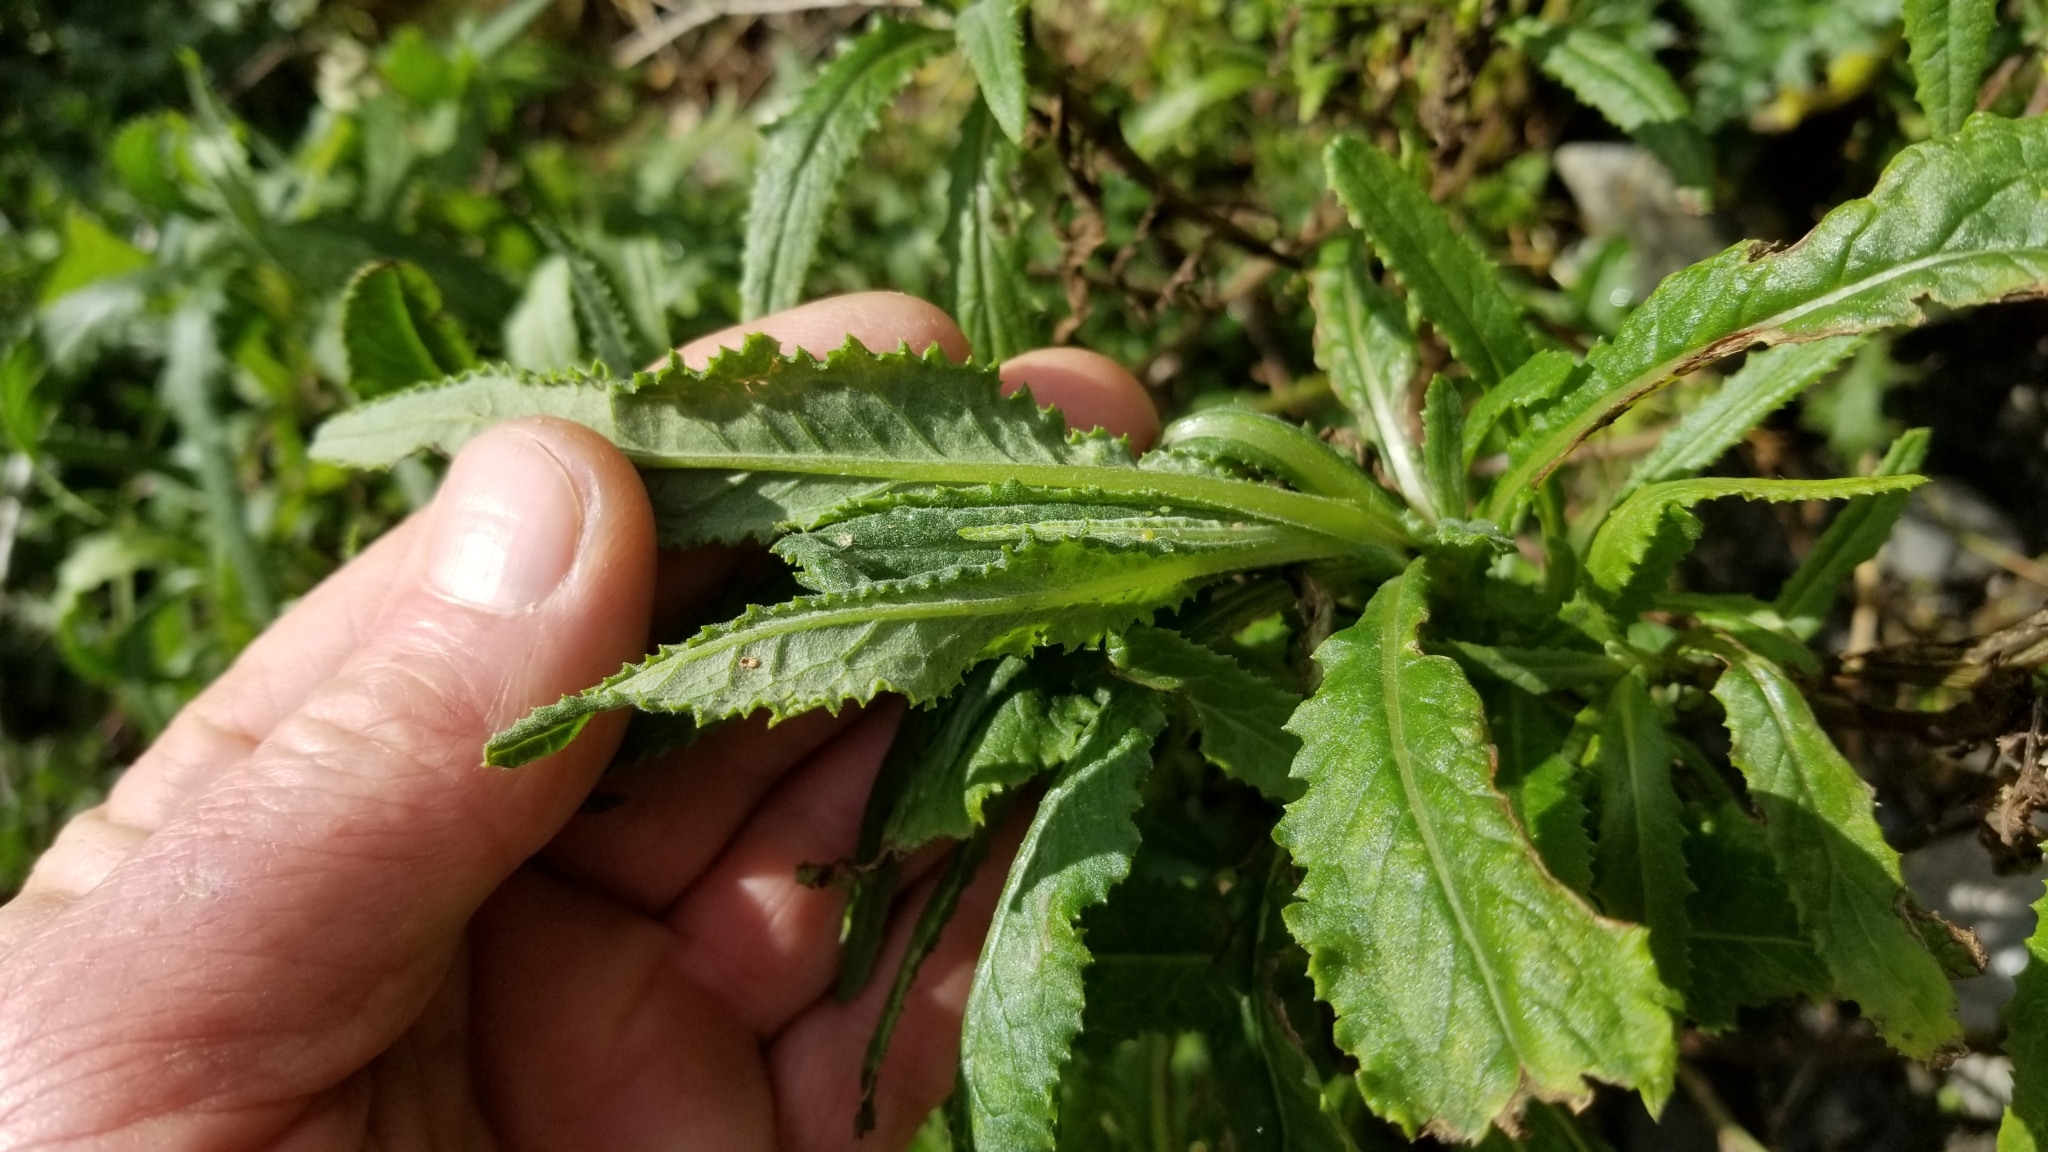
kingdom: Plantae
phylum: Tracheophyta
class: Magnoliopsida
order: Asterales
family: Asteraceae
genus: Senecio
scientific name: Senecio minimus
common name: Toothed fireweed
